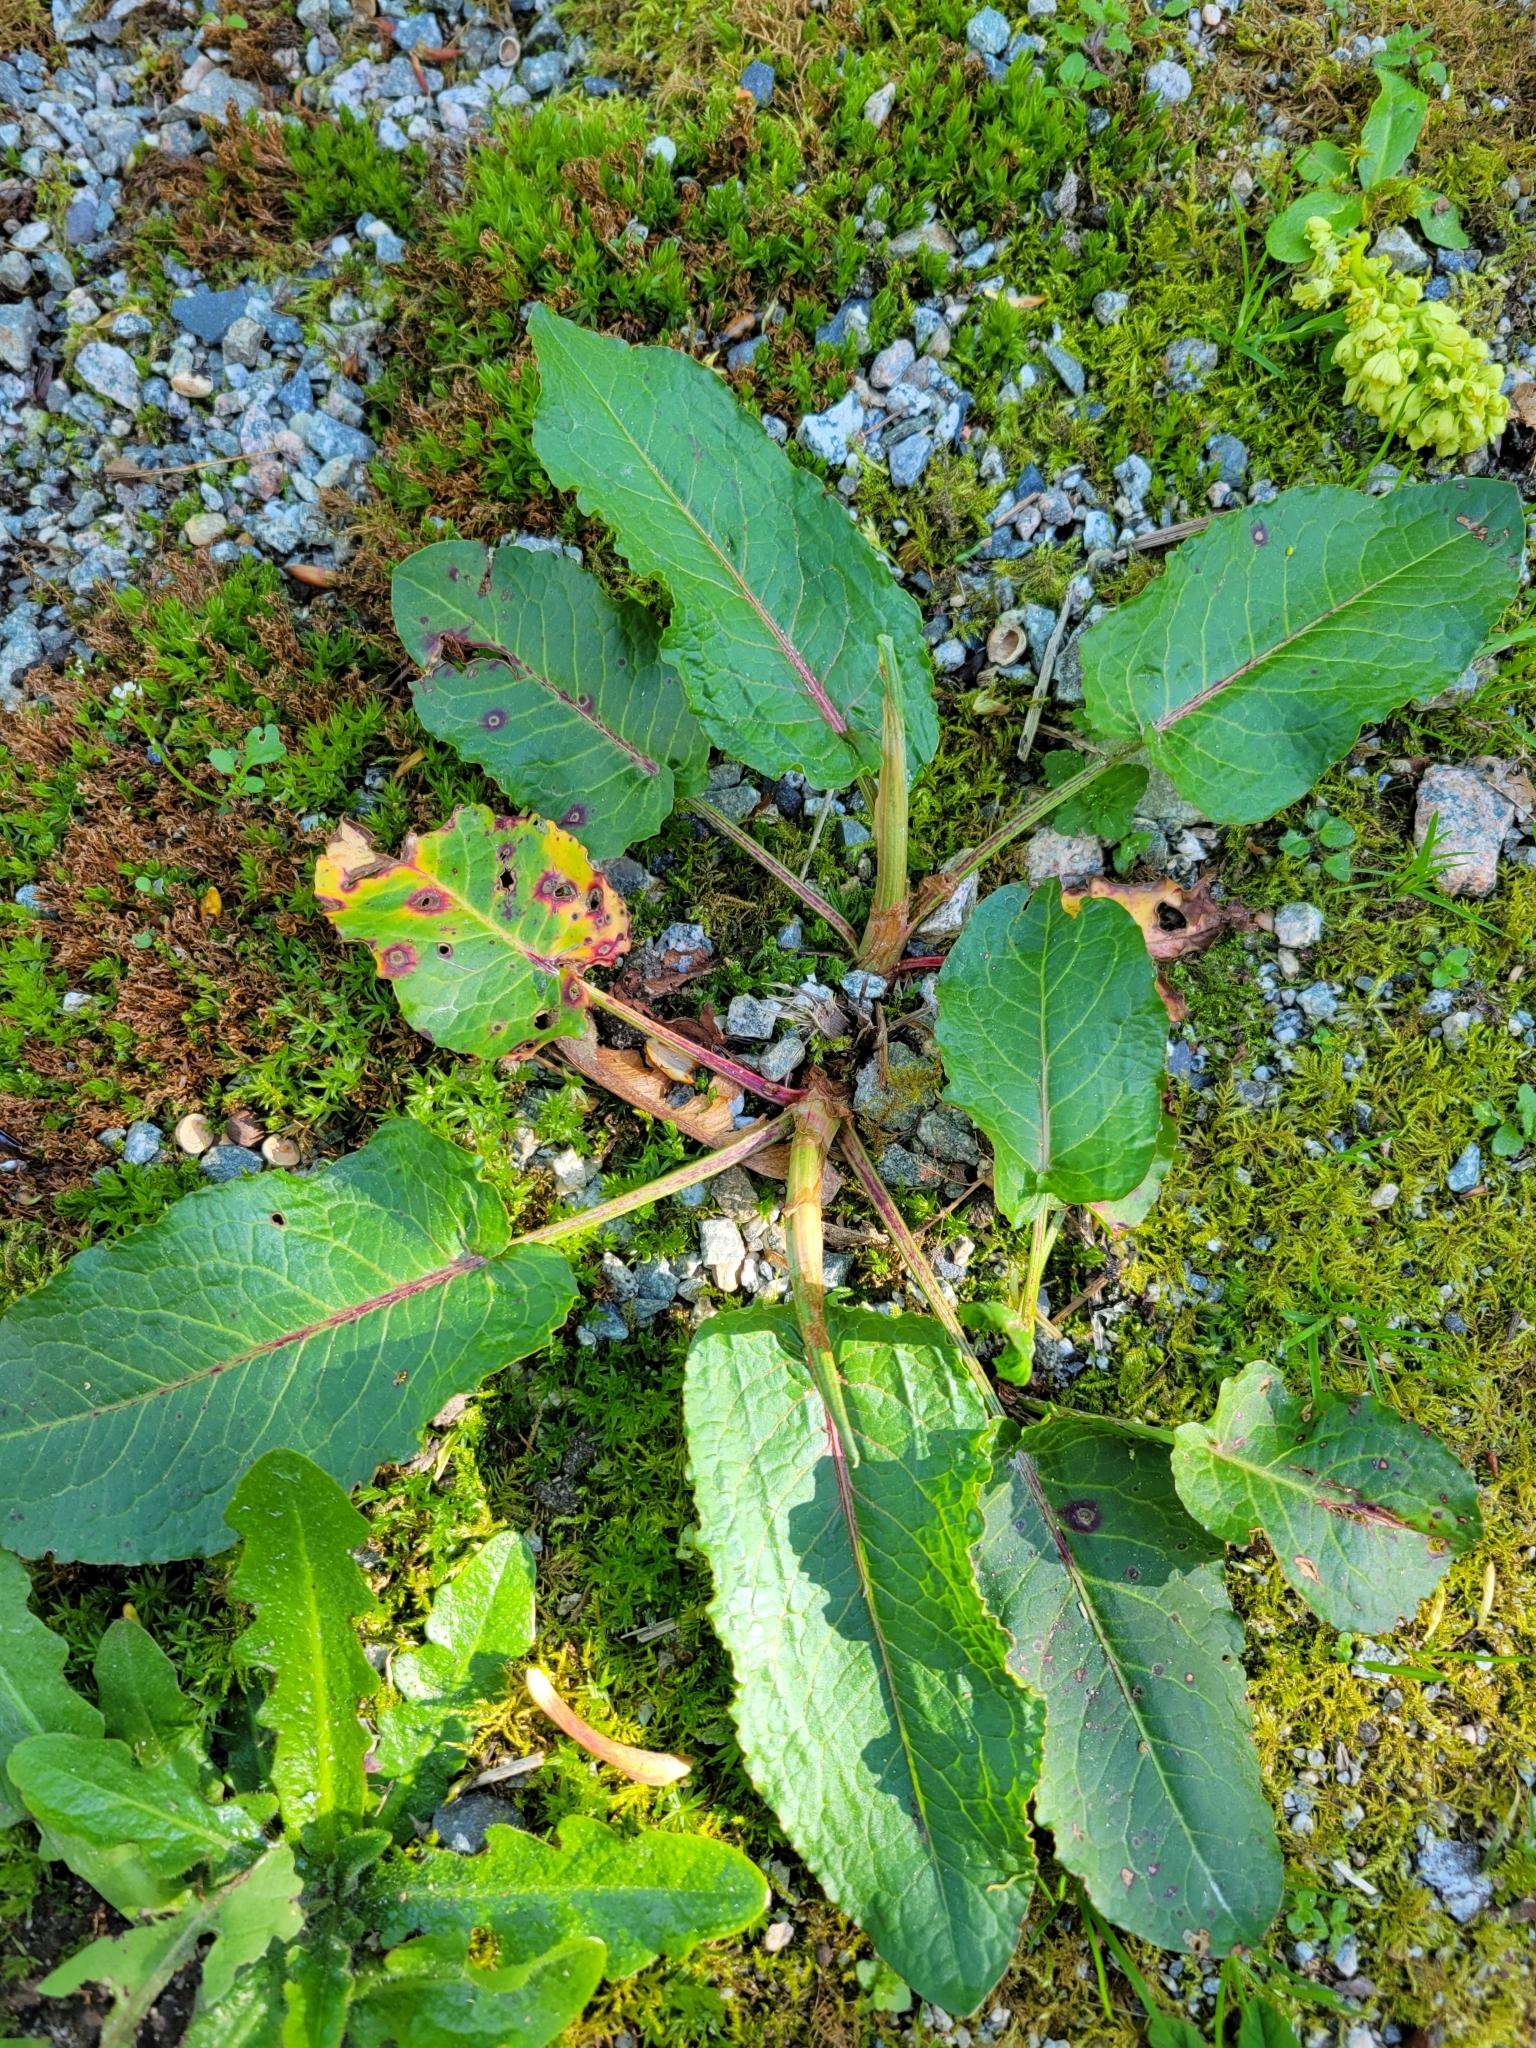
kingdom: Plantae
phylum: Tracheophyta
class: Magnoliopsida
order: Caryophyllales
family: Polygonaceae
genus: Rumex
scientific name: Rumex obtusifolius
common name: Bitter dock
